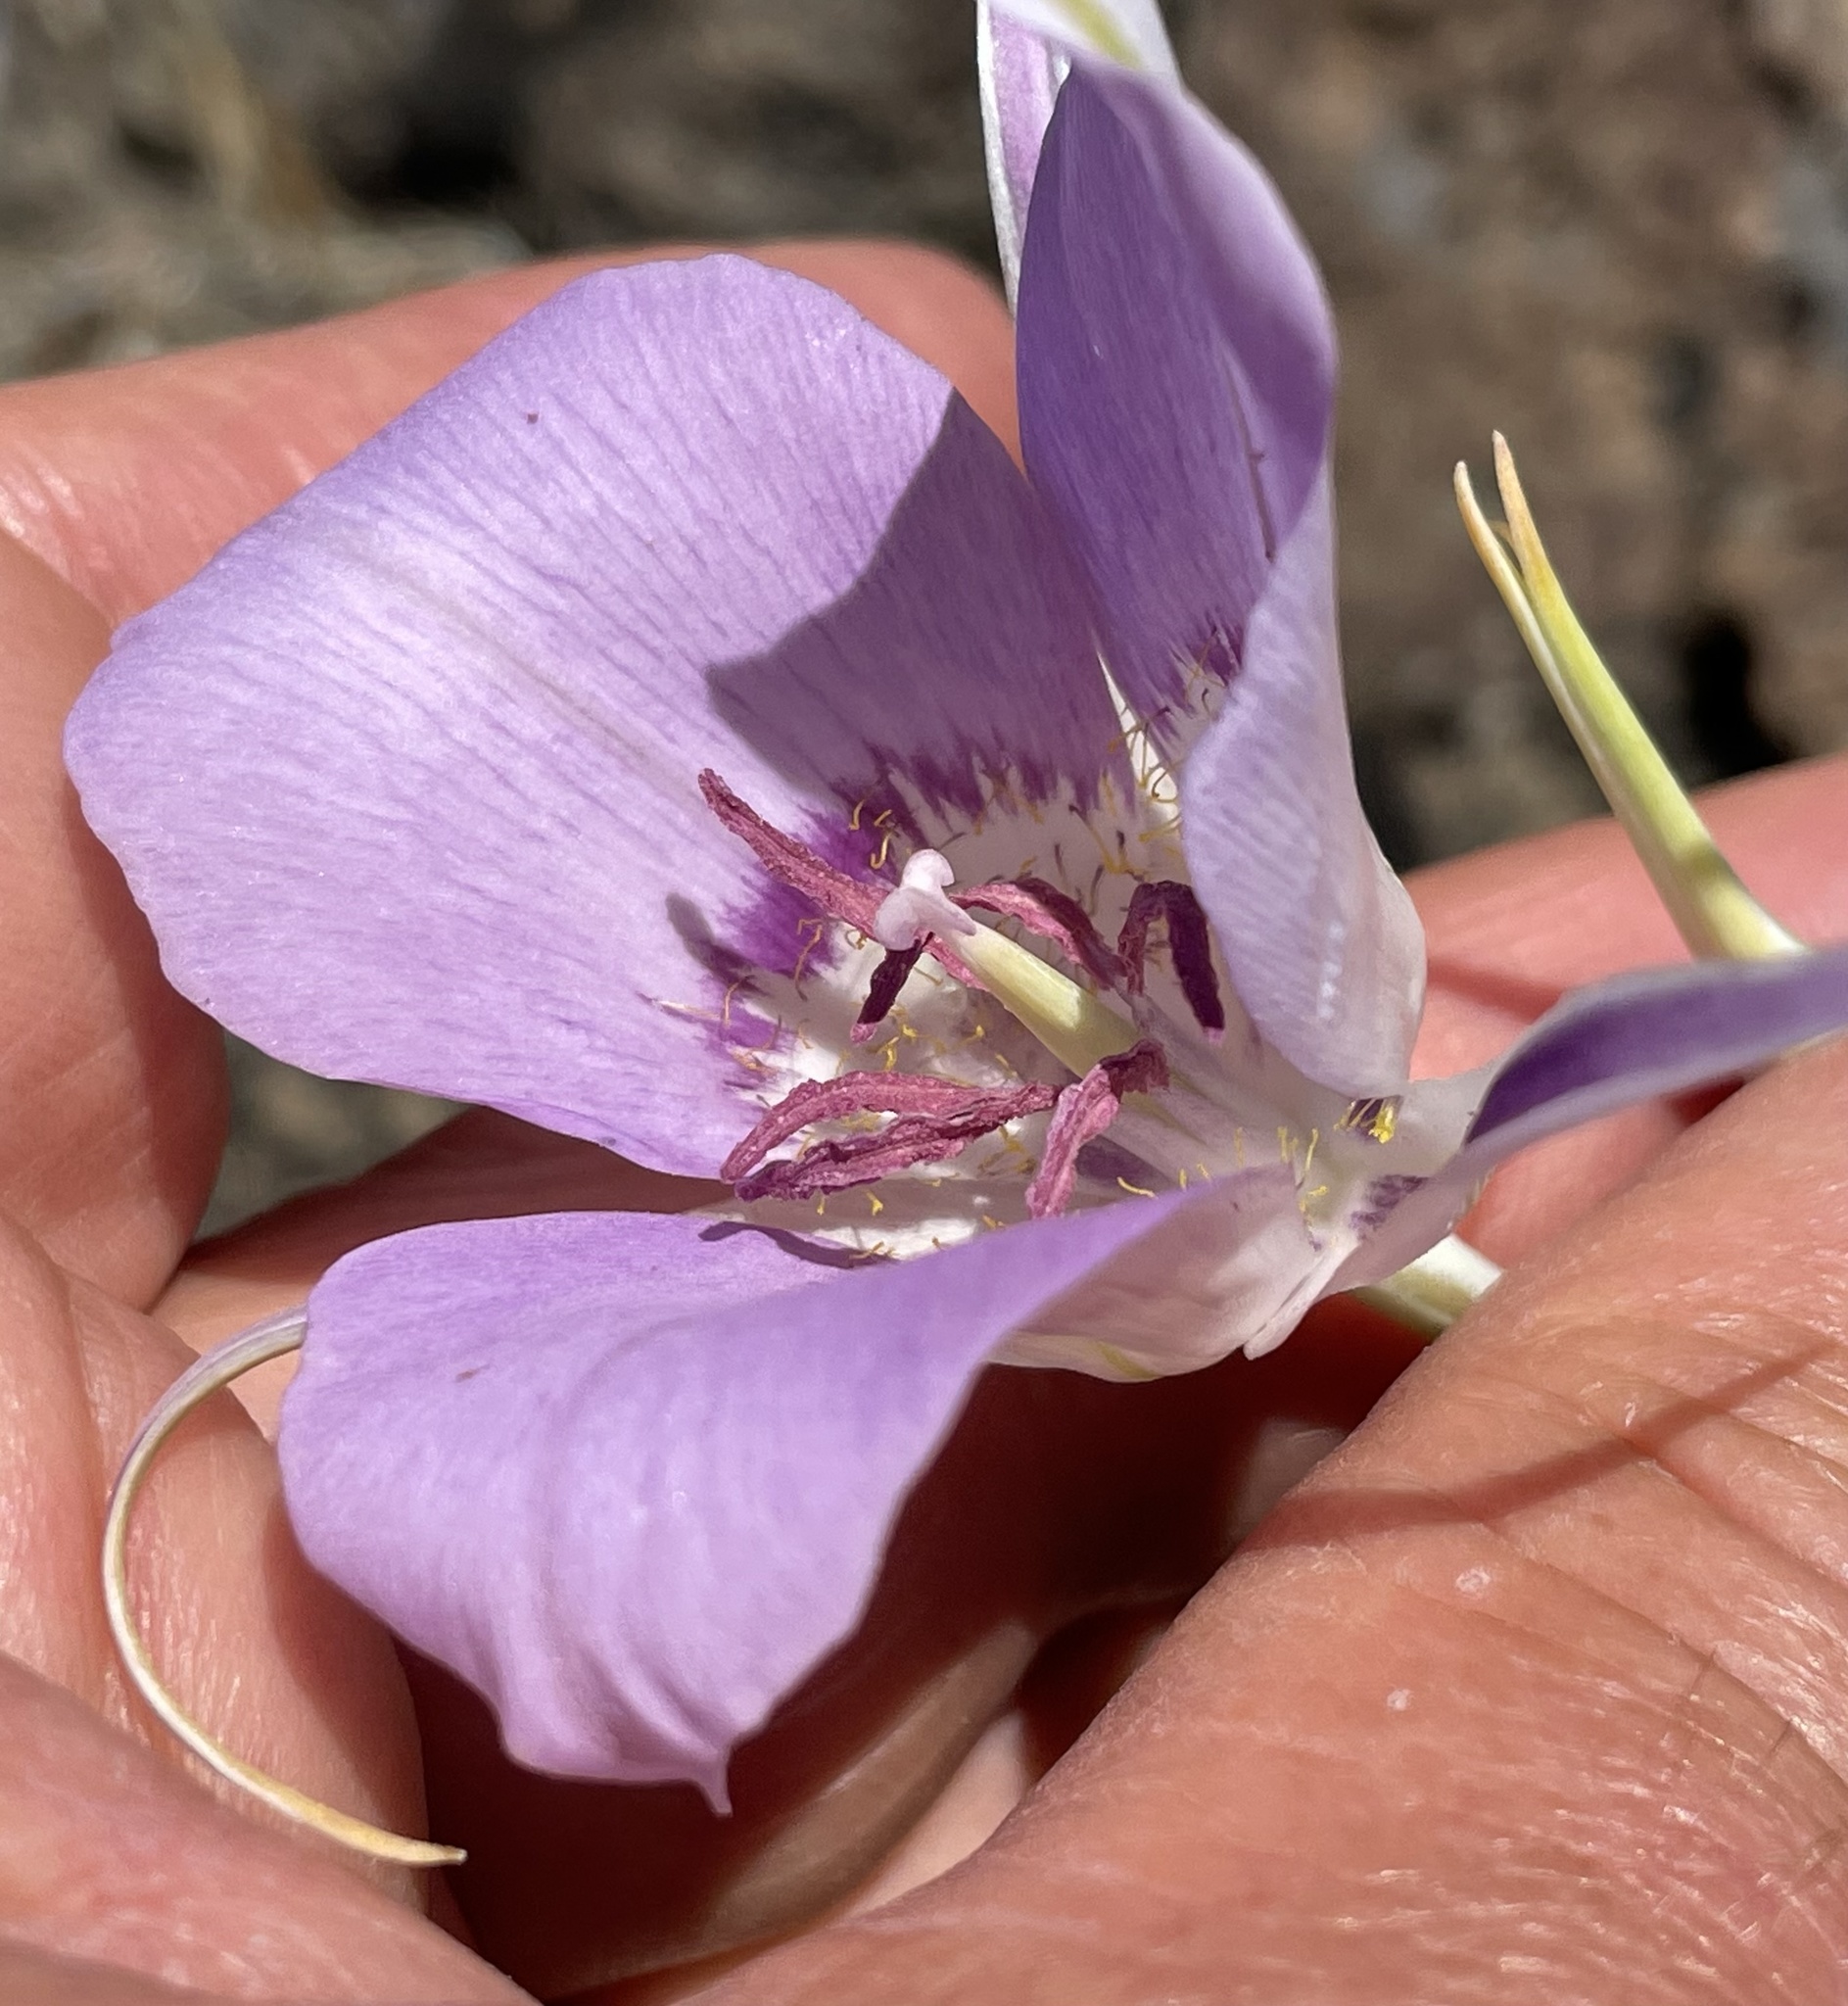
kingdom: Plantae
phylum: Tracheophyta
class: Liliopsida
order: Liliales
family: Liliaceae
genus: Calochortus
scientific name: Calochortus macrocarpus
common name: Green-band mariposa lily
